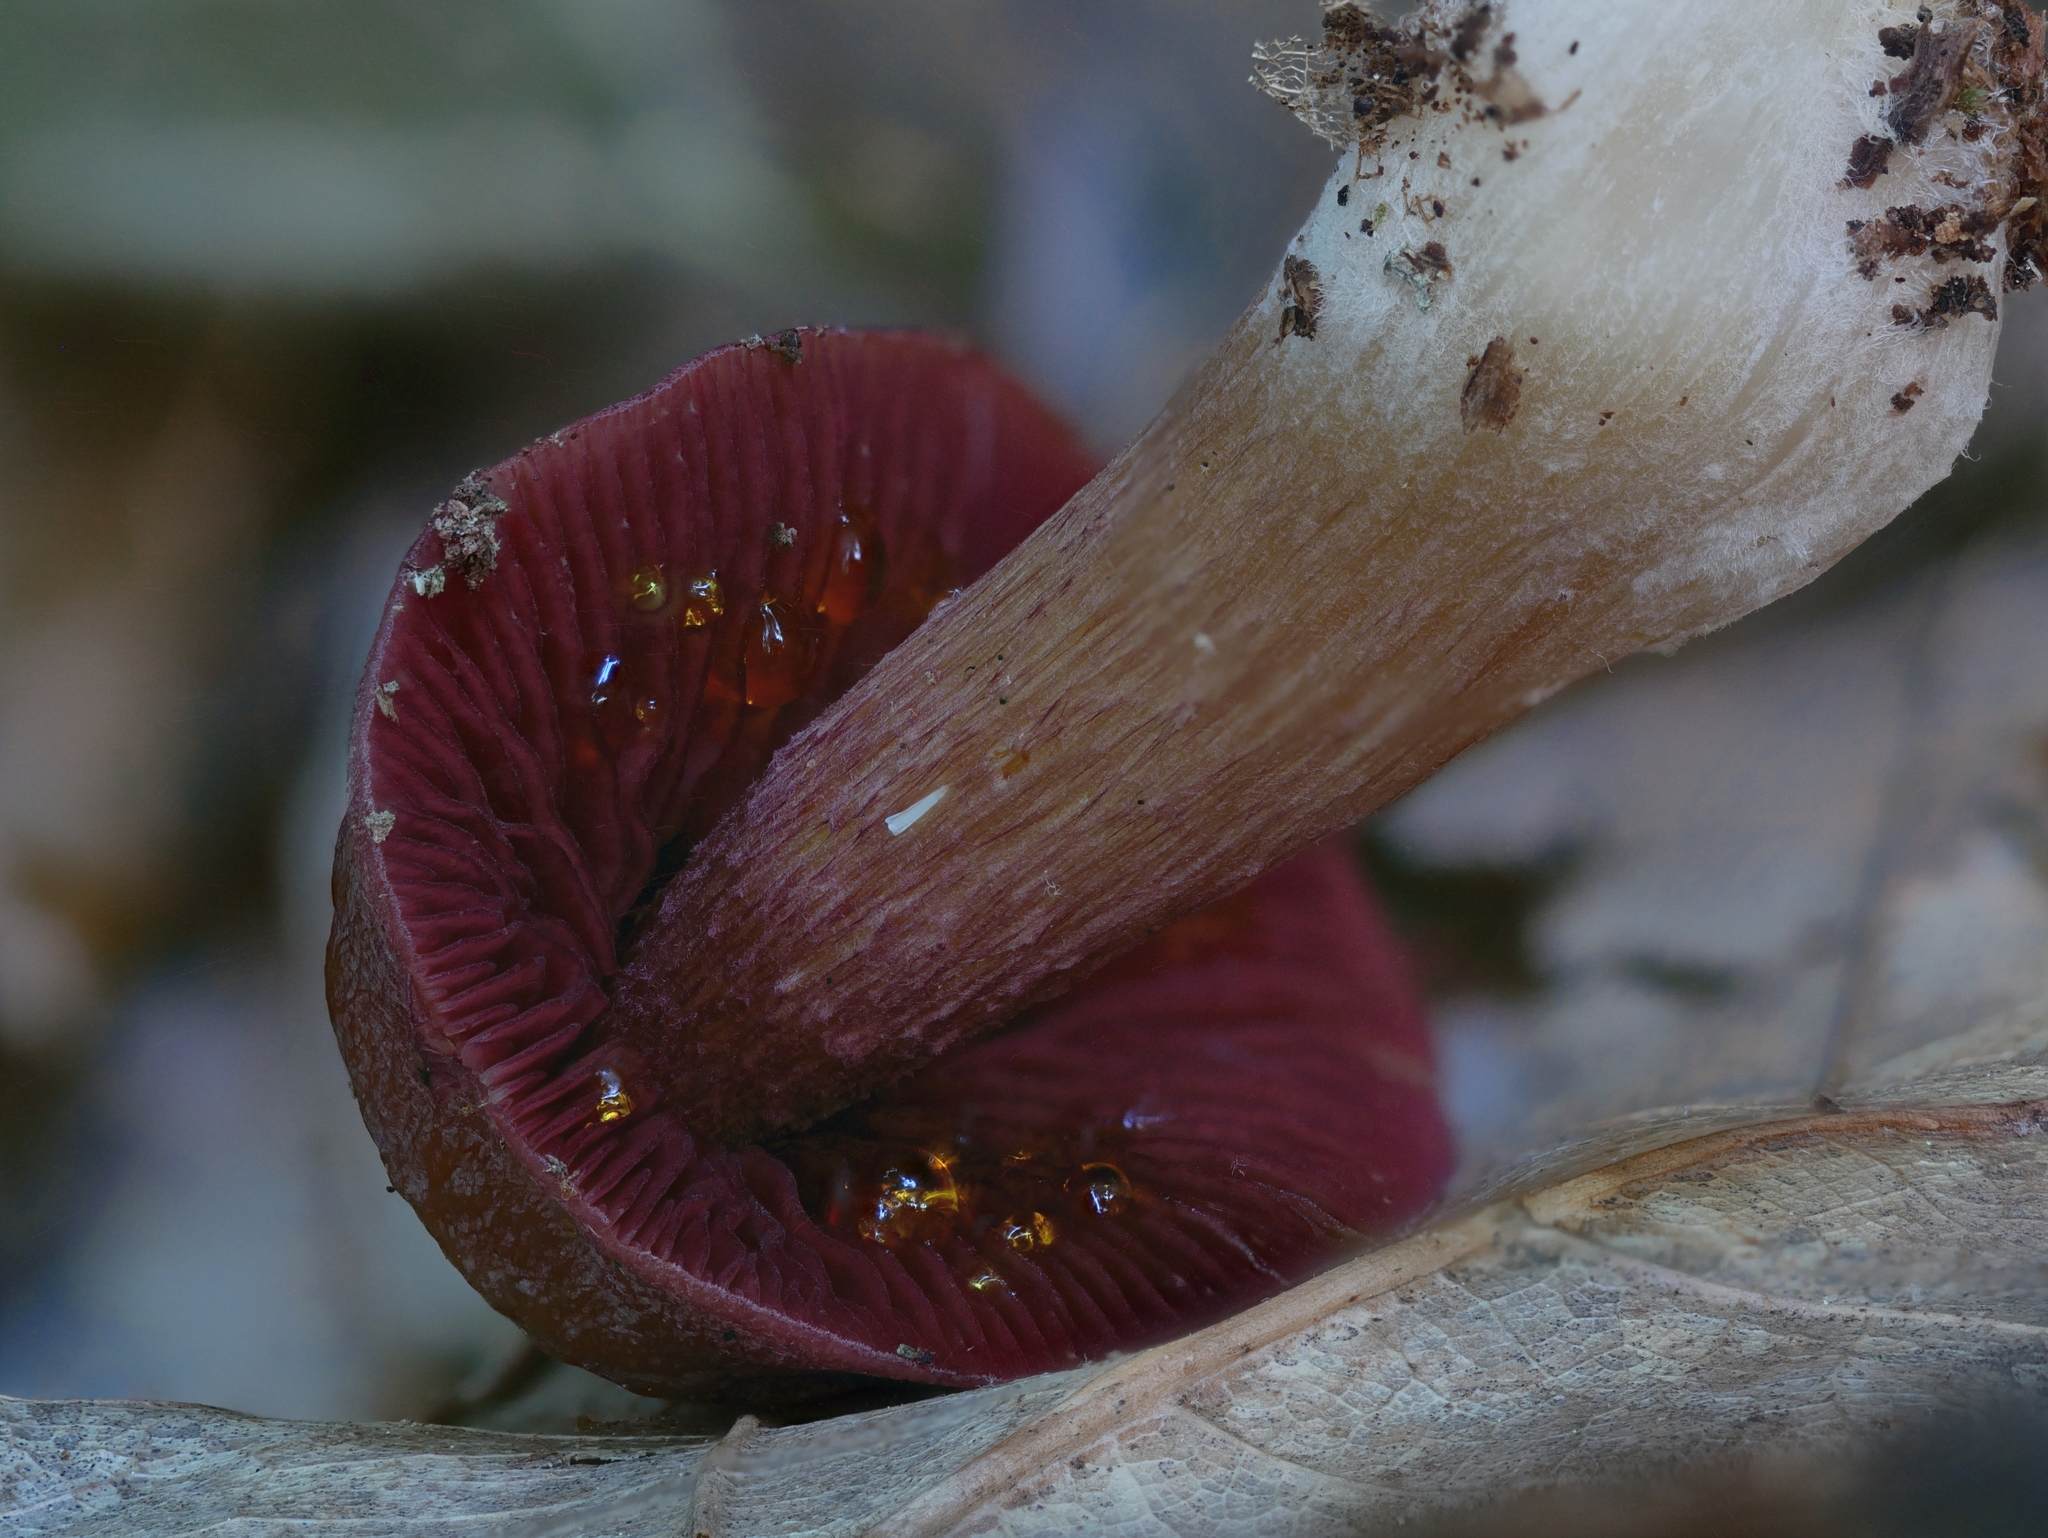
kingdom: Fungi
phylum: Basidiomycota
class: Agaricomycetes
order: Agaricales
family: Mycenaceae
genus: Mycena
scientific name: Mycena denticulata
